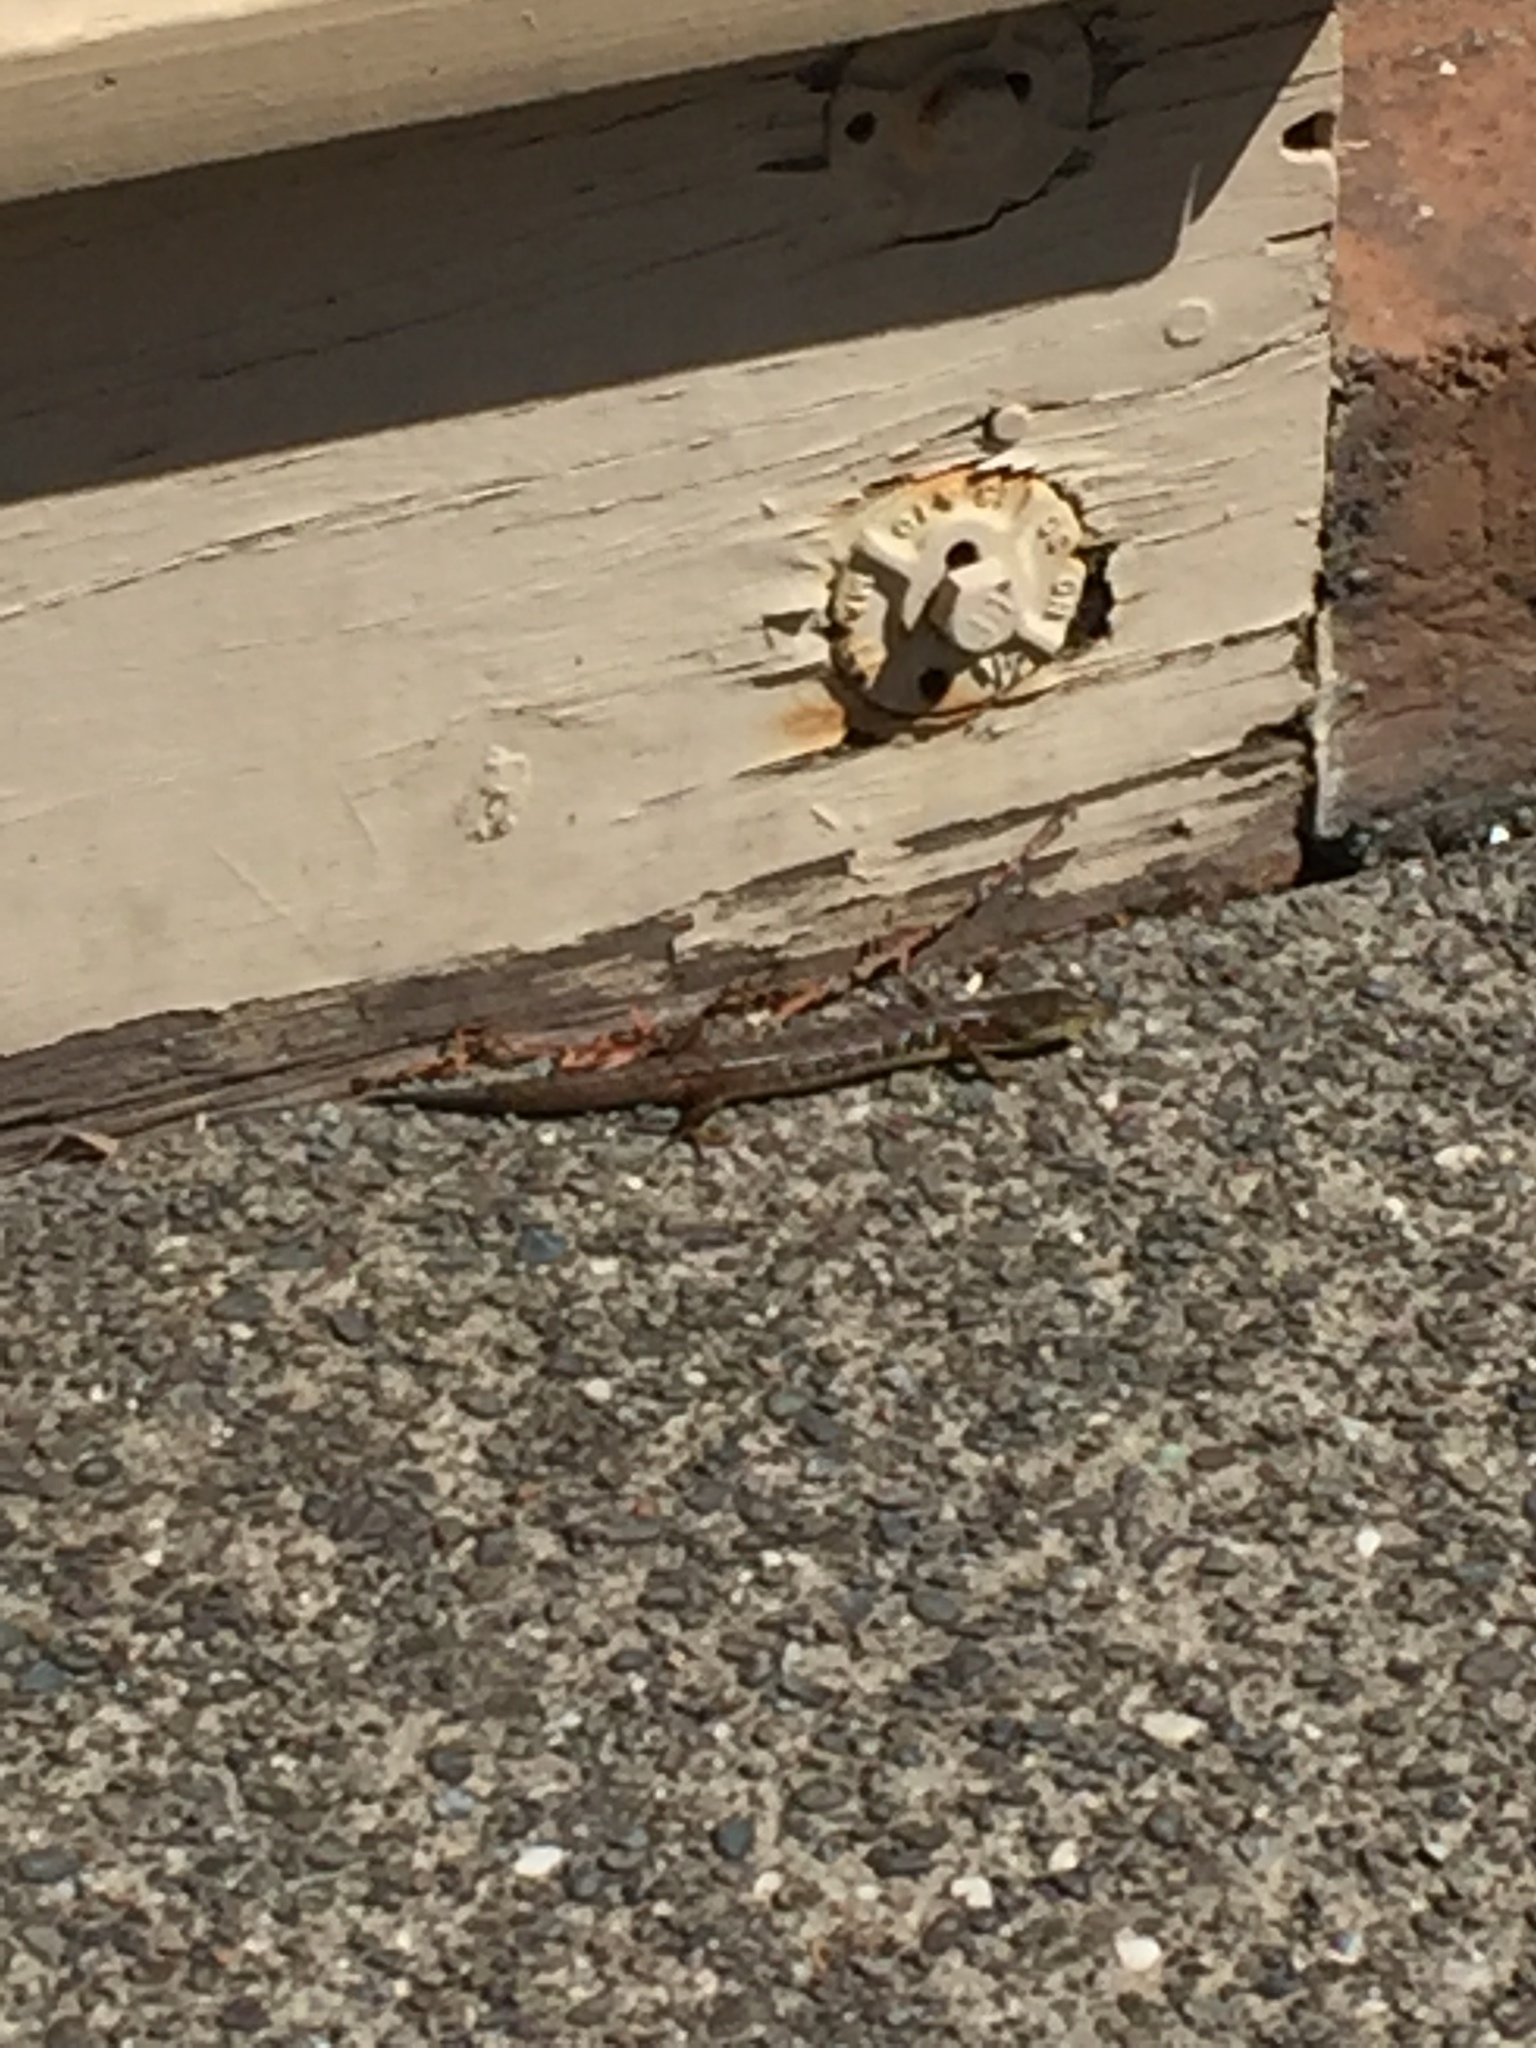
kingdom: Animalia
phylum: Chordata
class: Squamata
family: Anguidae
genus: Elgaria
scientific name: Elgaria multicarinata
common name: Southern alligator lizard
